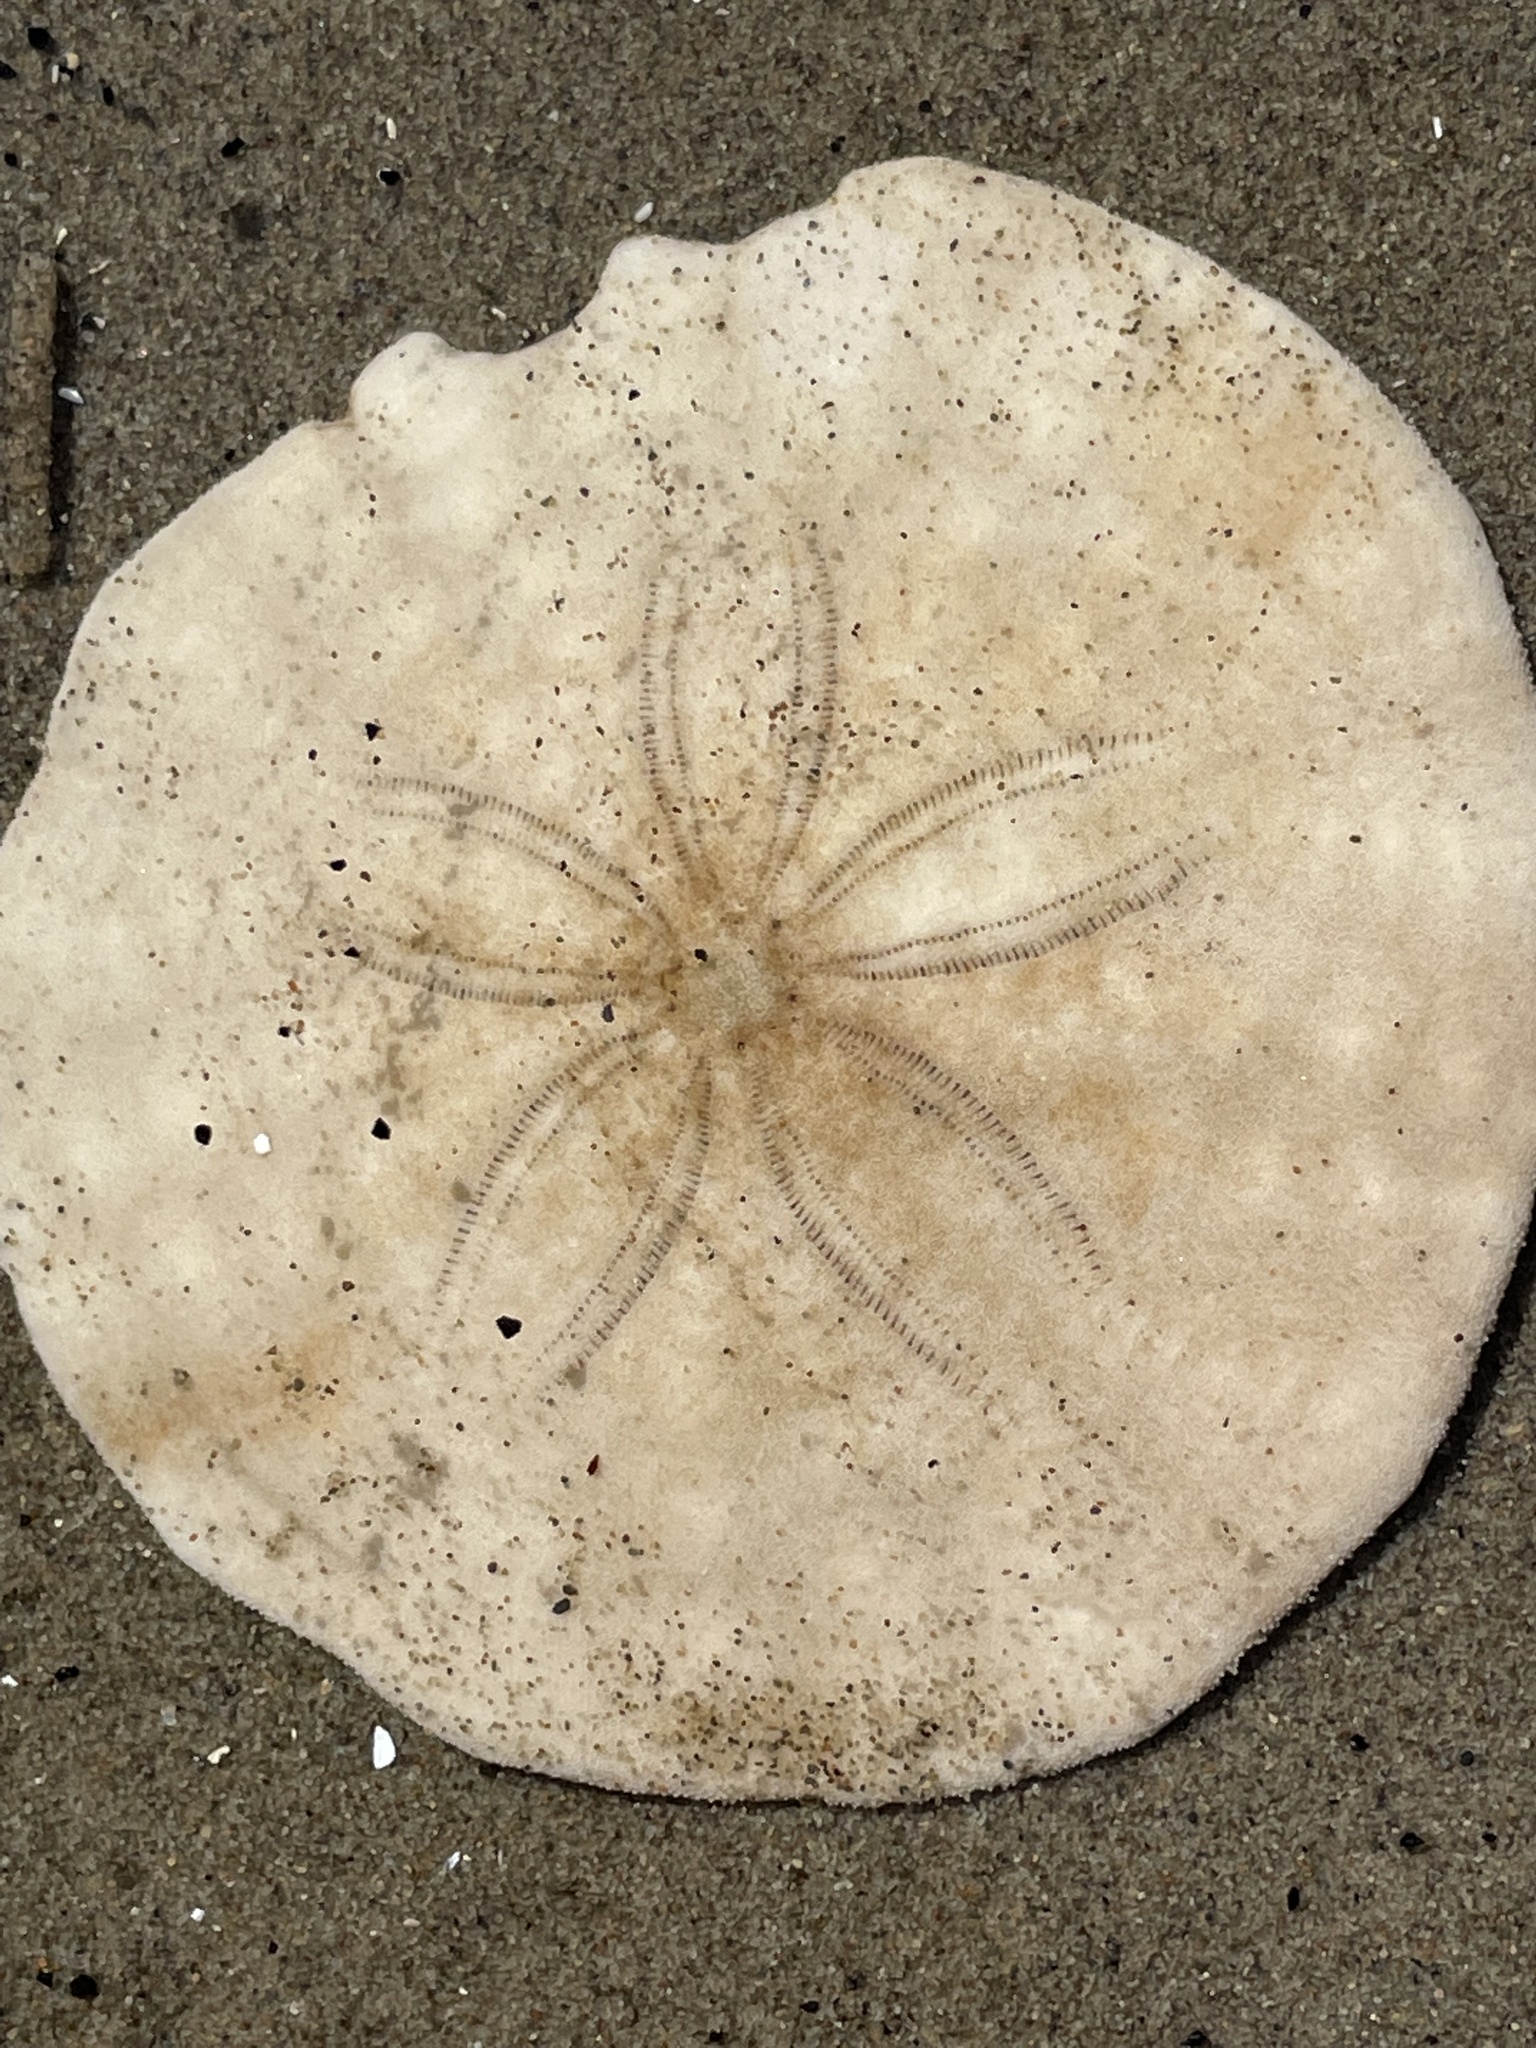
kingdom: Animalia
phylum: Echinodermata
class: Echinoidea
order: Echinolampadacea
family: Echinarachniidae
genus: Echinarachnius
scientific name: Echinarachnius parma
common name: Common sand dollar
